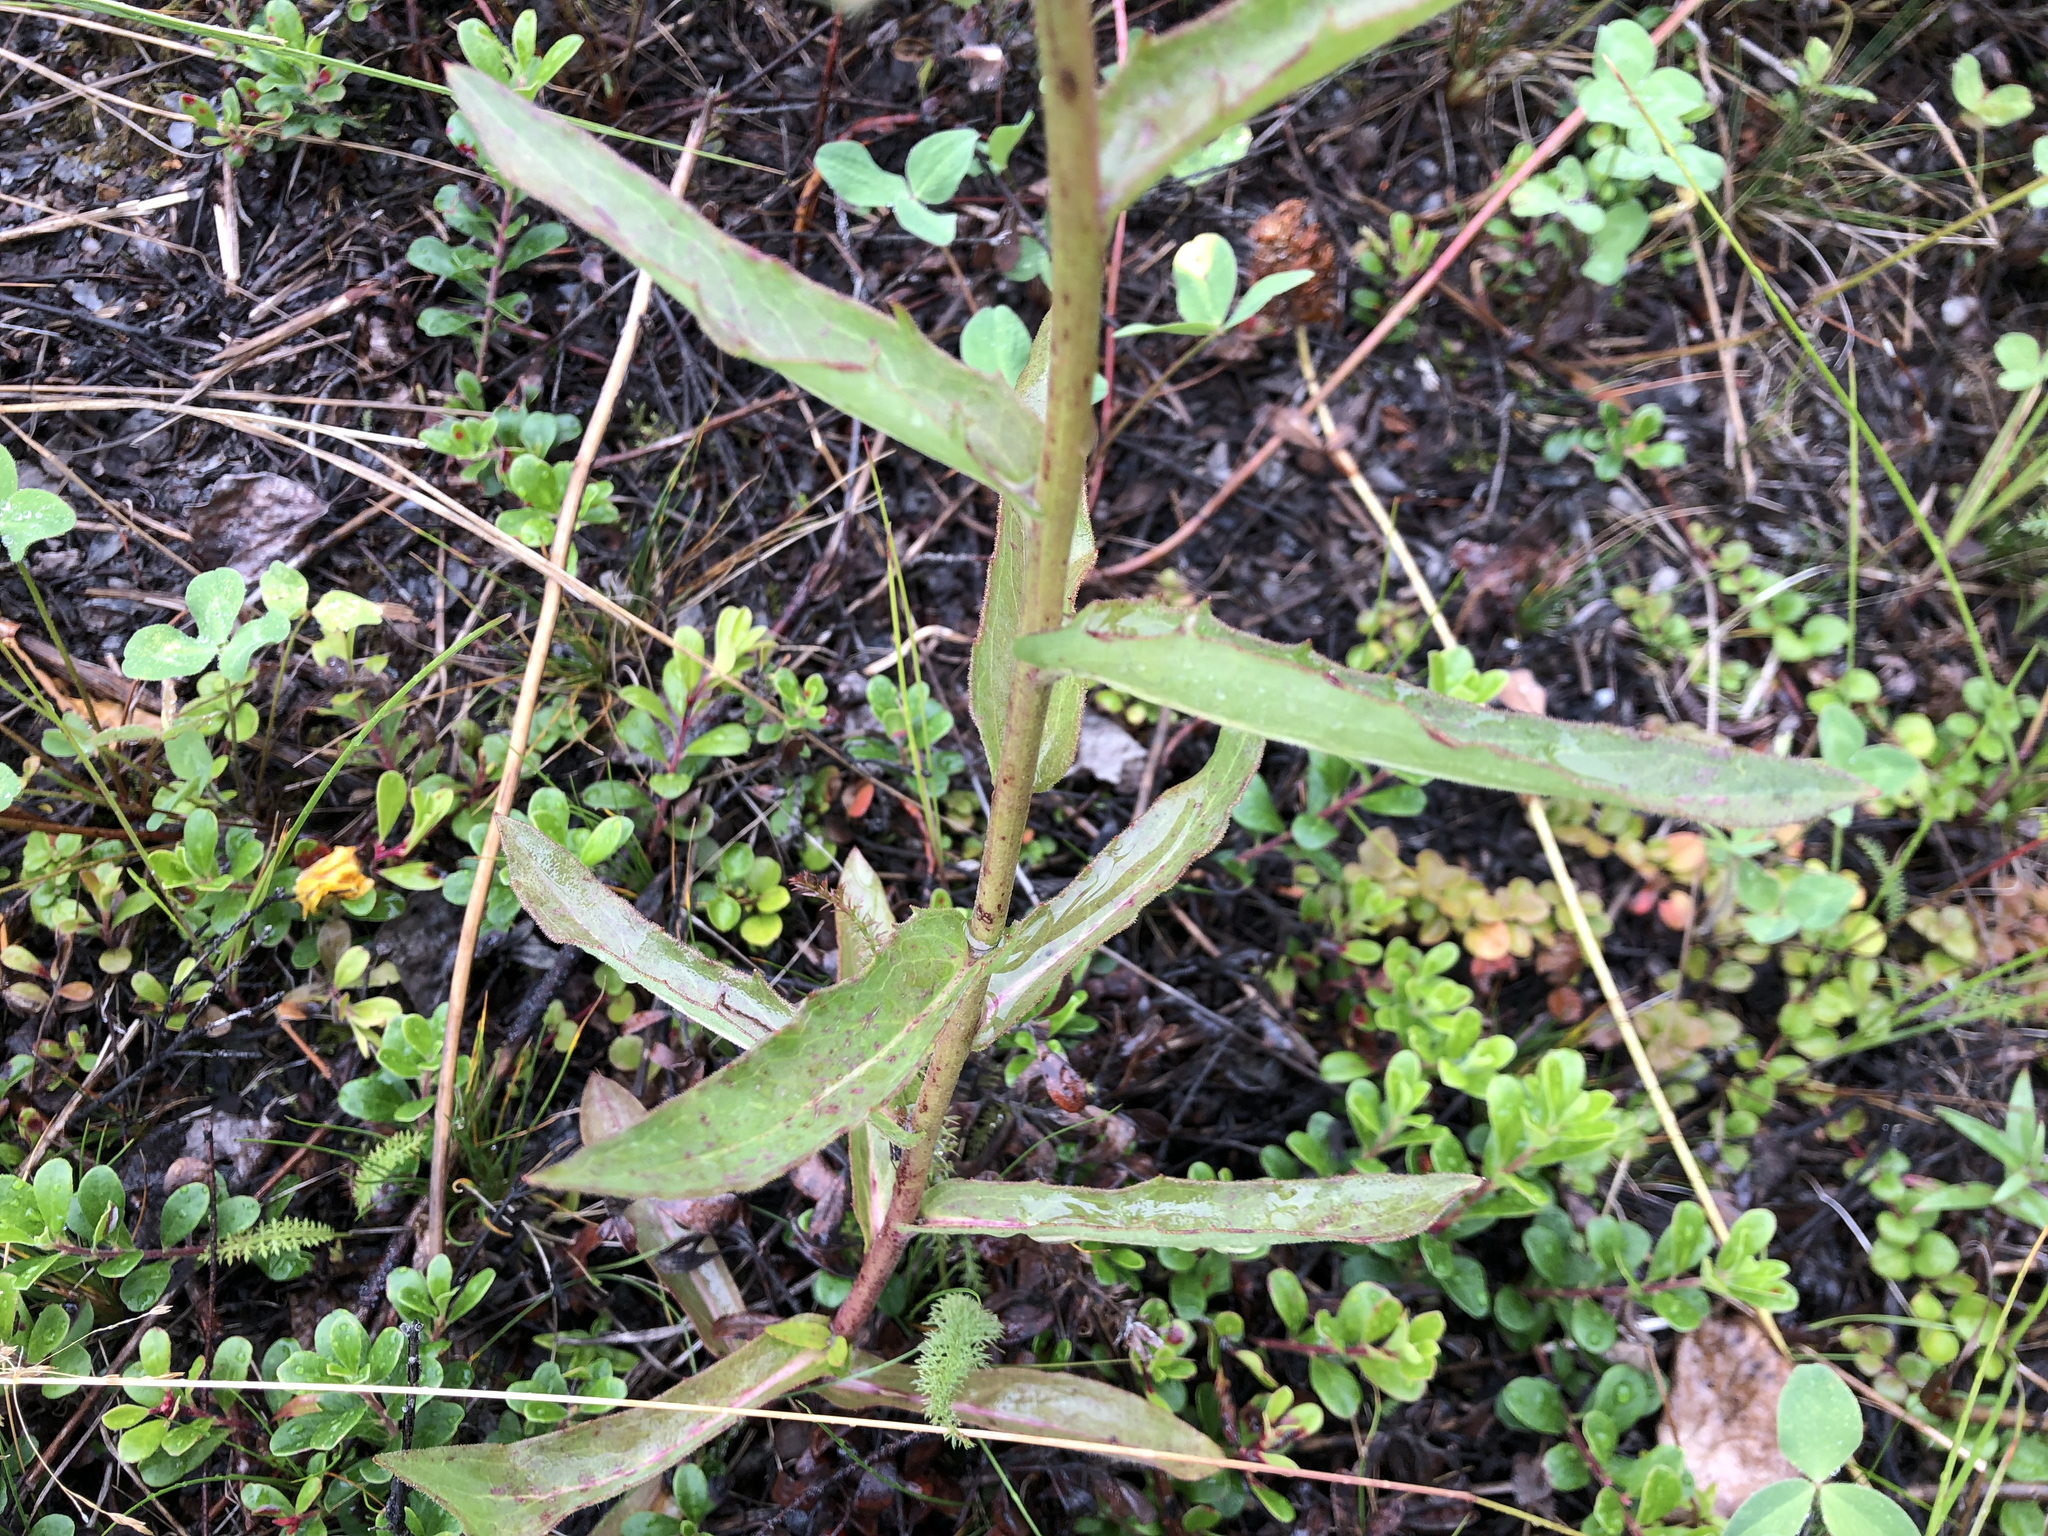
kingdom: Plantae
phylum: Tracheophyta
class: Magnoliopsida
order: Asterales
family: Asteraceae
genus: Hieracium
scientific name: Hieracium umbellatum
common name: Northern hawkweed
